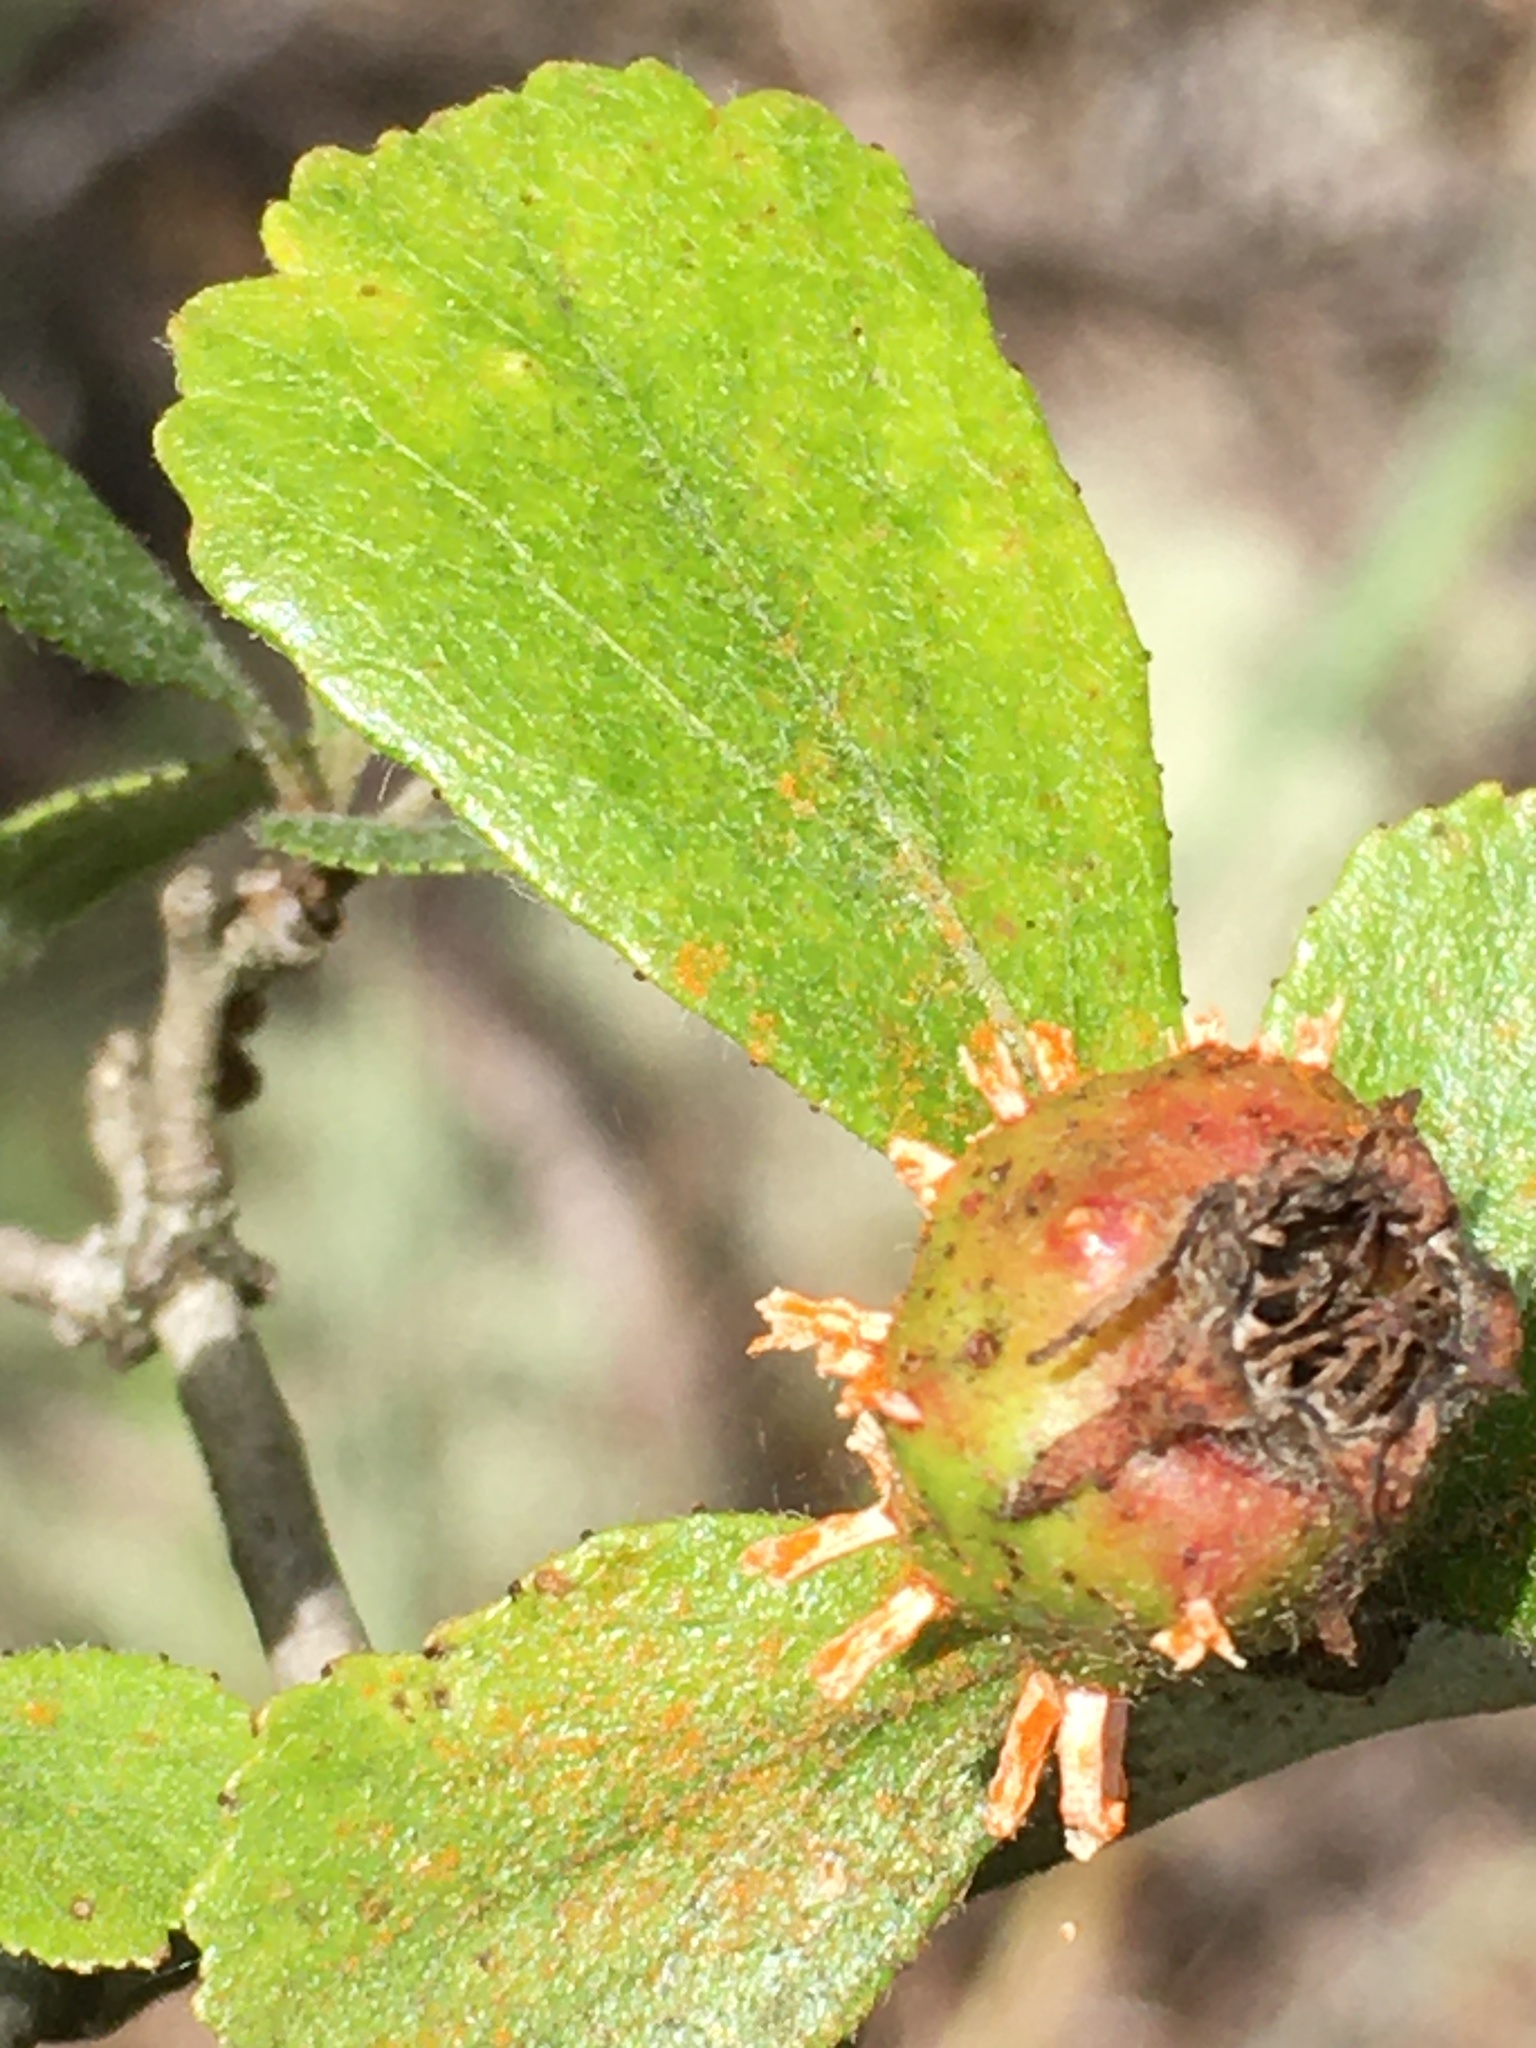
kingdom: Fungi
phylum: Basidiomycota
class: Pucciniomycetes
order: Pucciniales
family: Gymnosporangiaceae
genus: Gymnosporangium
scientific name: Gymnosporangium clavipes
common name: Quince rust
